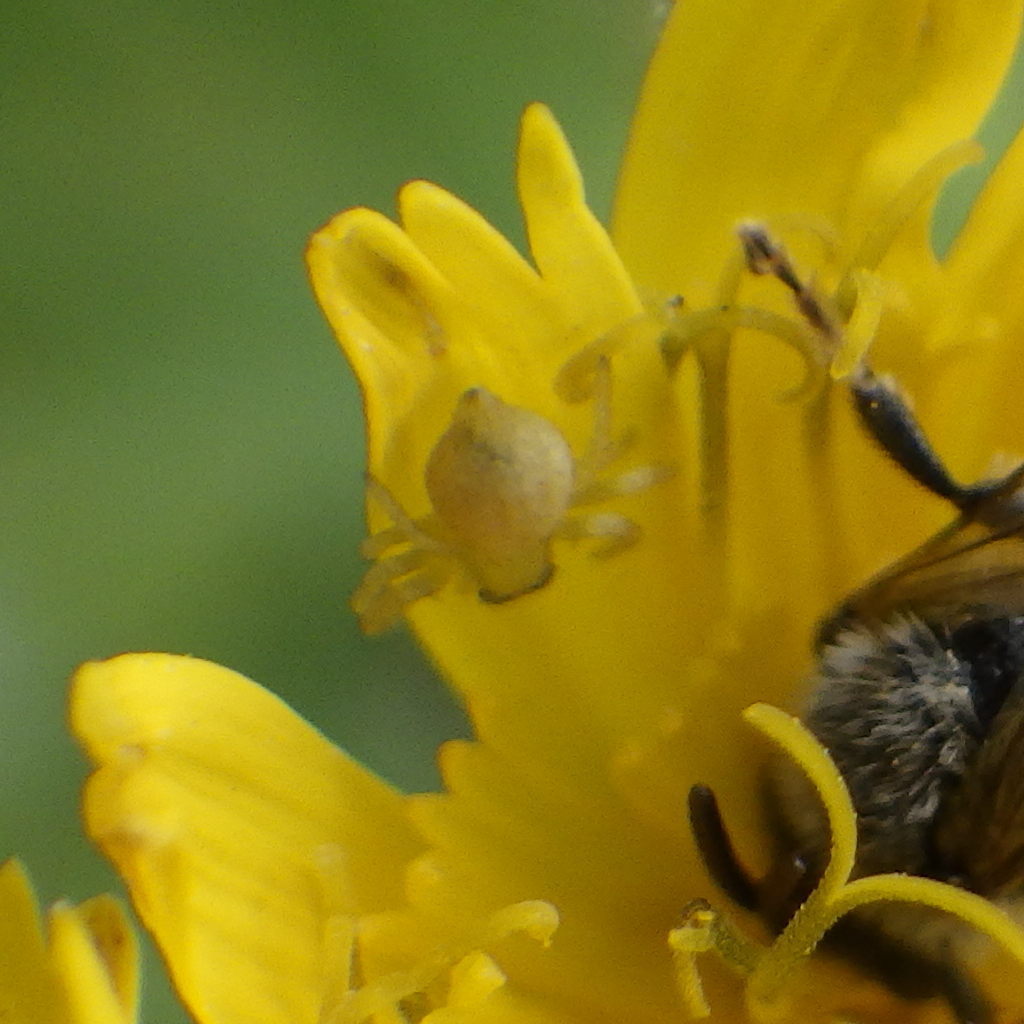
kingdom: Animalia
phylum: Arthropoda
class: Arachnida
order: Araneae
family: Thomisidae
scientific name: Thomisidae
